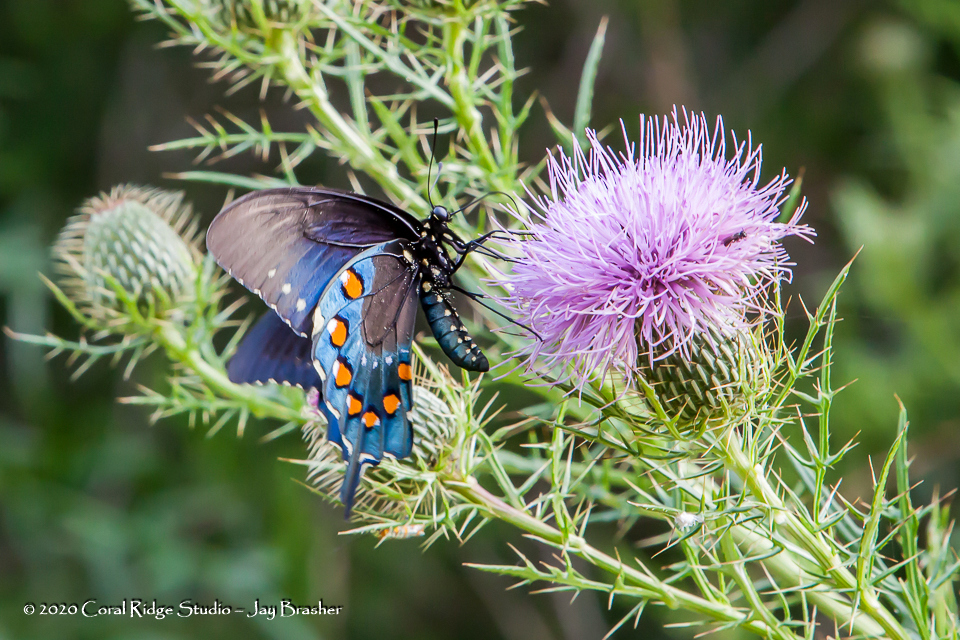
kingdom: Animalia
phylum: Arthropoda
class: Insecta
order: Lepidoptera
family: Papilionidae
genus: Battus
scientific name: Battus philenor
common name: Pipevine swallowtail
